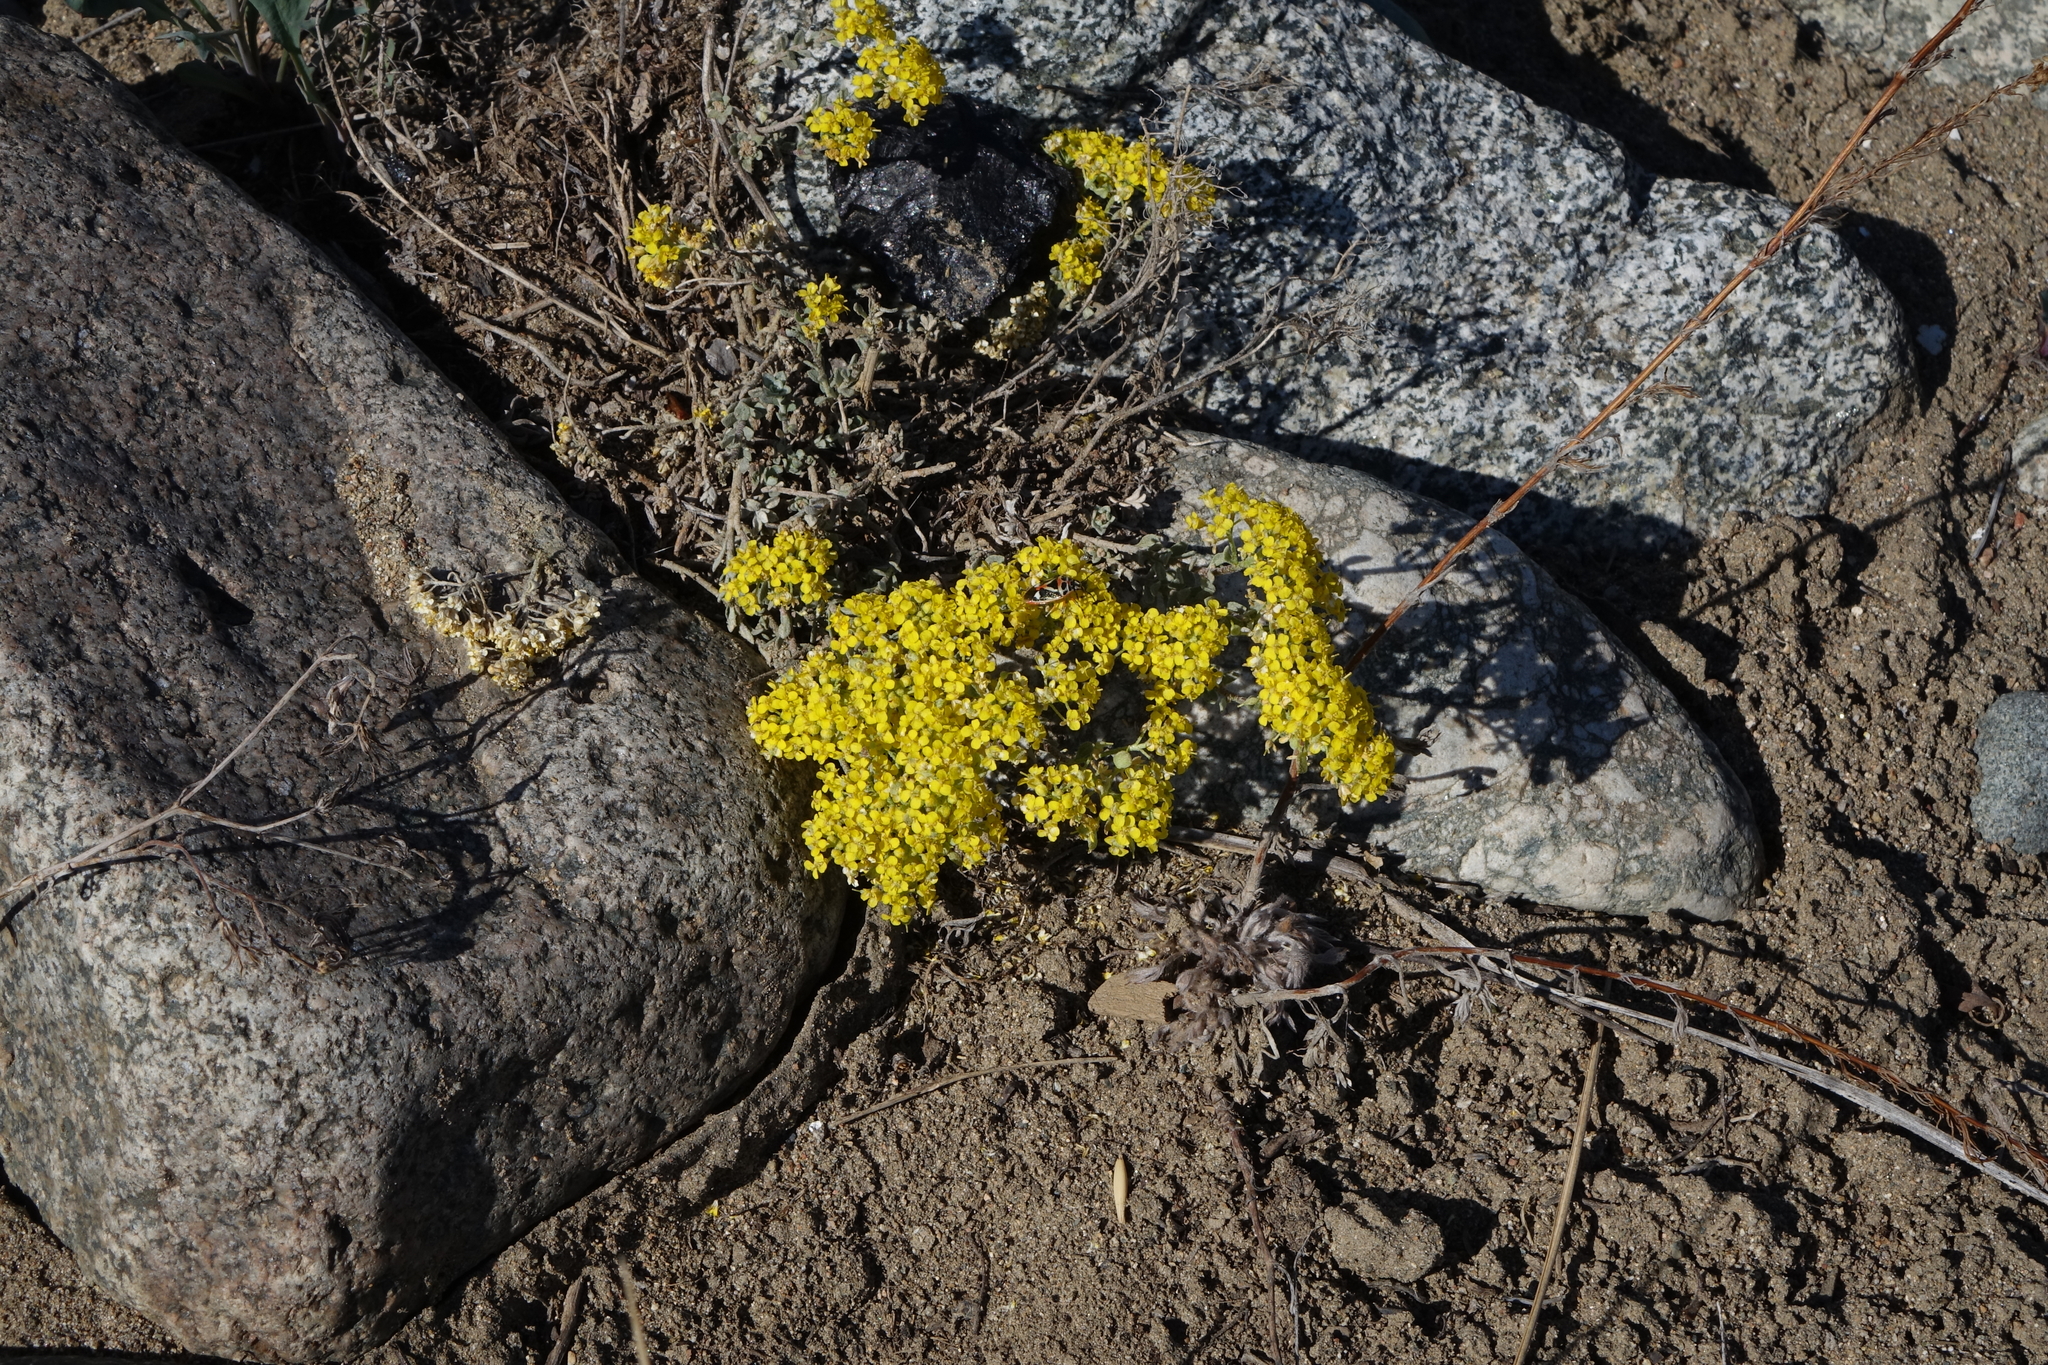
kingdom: Plantae
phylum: Tracheophyta
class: Magnoliopsida
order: Brassicales
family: Brassicaceae
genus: Odontarrhena
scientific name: Odontarrhena obovata
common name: American alyssum
